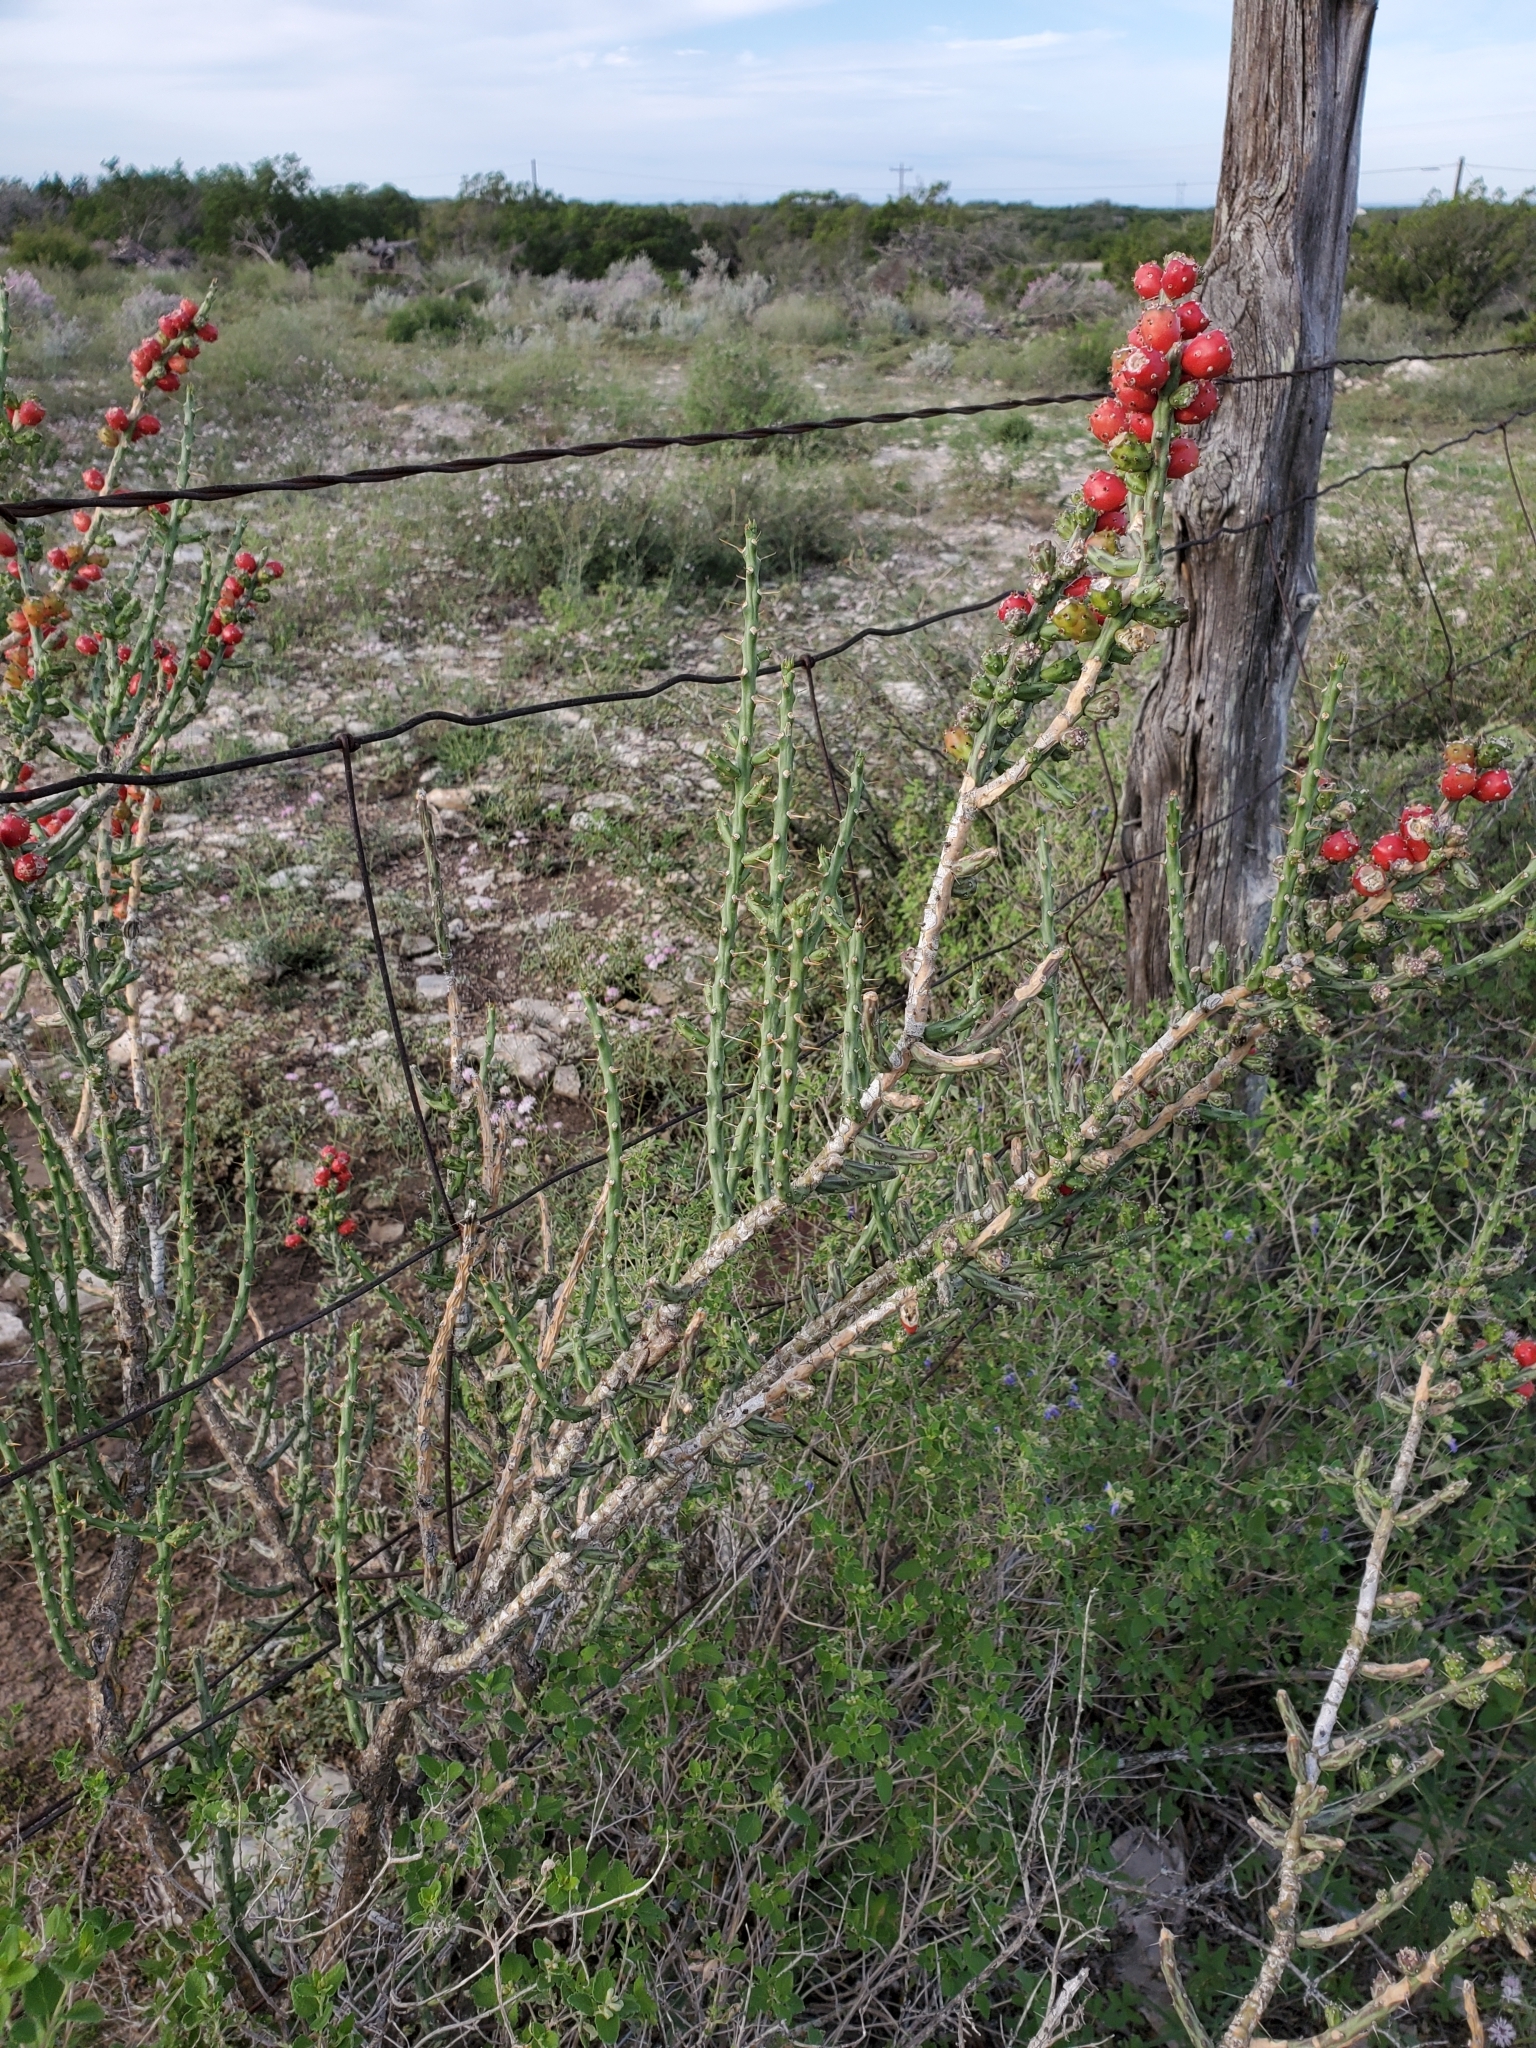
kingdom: Plantae
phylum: Tracheophyta
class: Magnoliopsida
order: Caryophyllales
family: Cactaceae
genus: Cylindropuntia
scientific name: Cylindropuntia leptocaulis
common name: Christmas cactus
